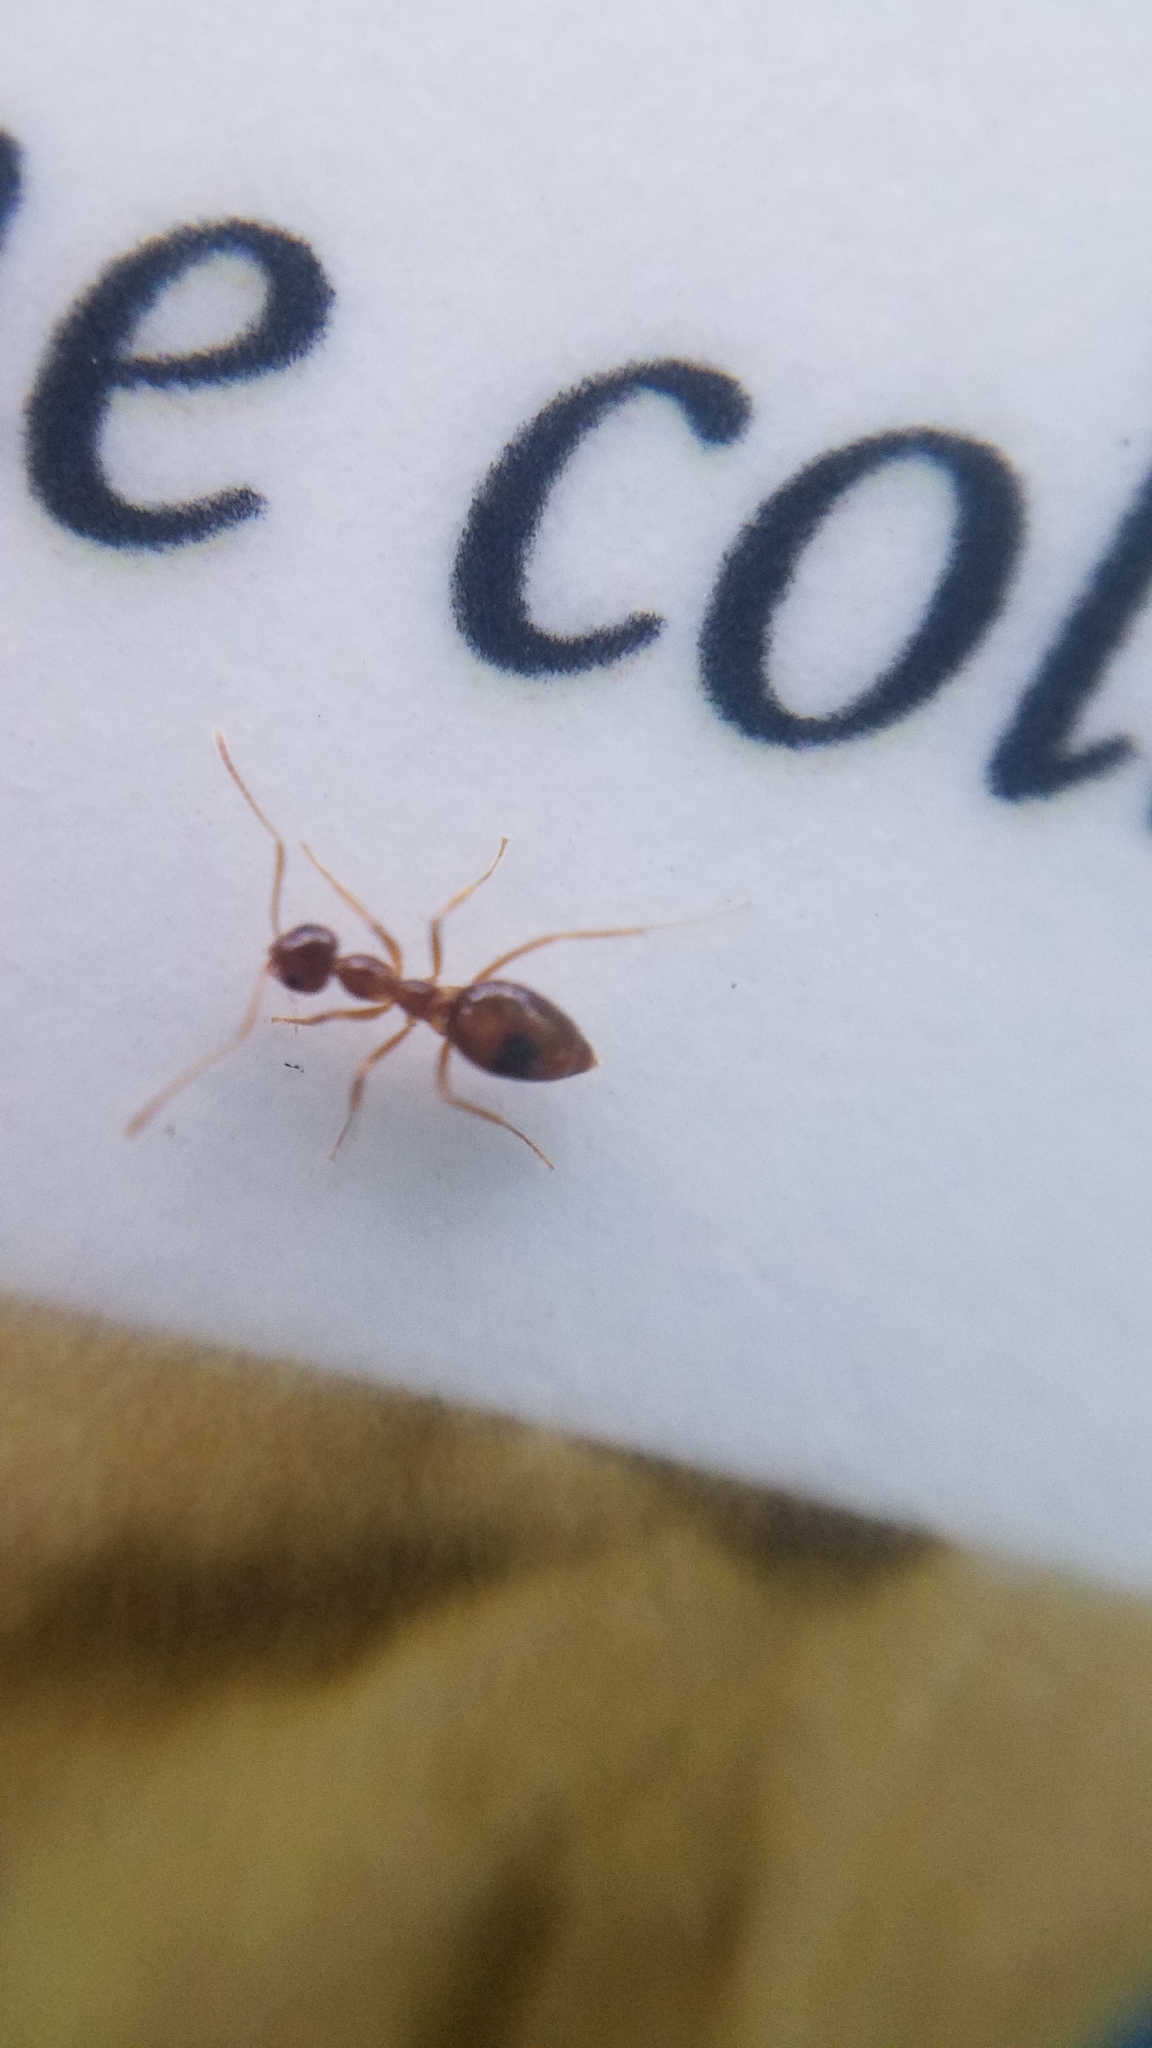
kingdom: Animalia
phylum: Arthropoda
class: Insecta
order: Hymenoptera
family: Formicidae
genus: Prenolepis
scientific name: Prenolepis imparis
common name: Small honey ant
